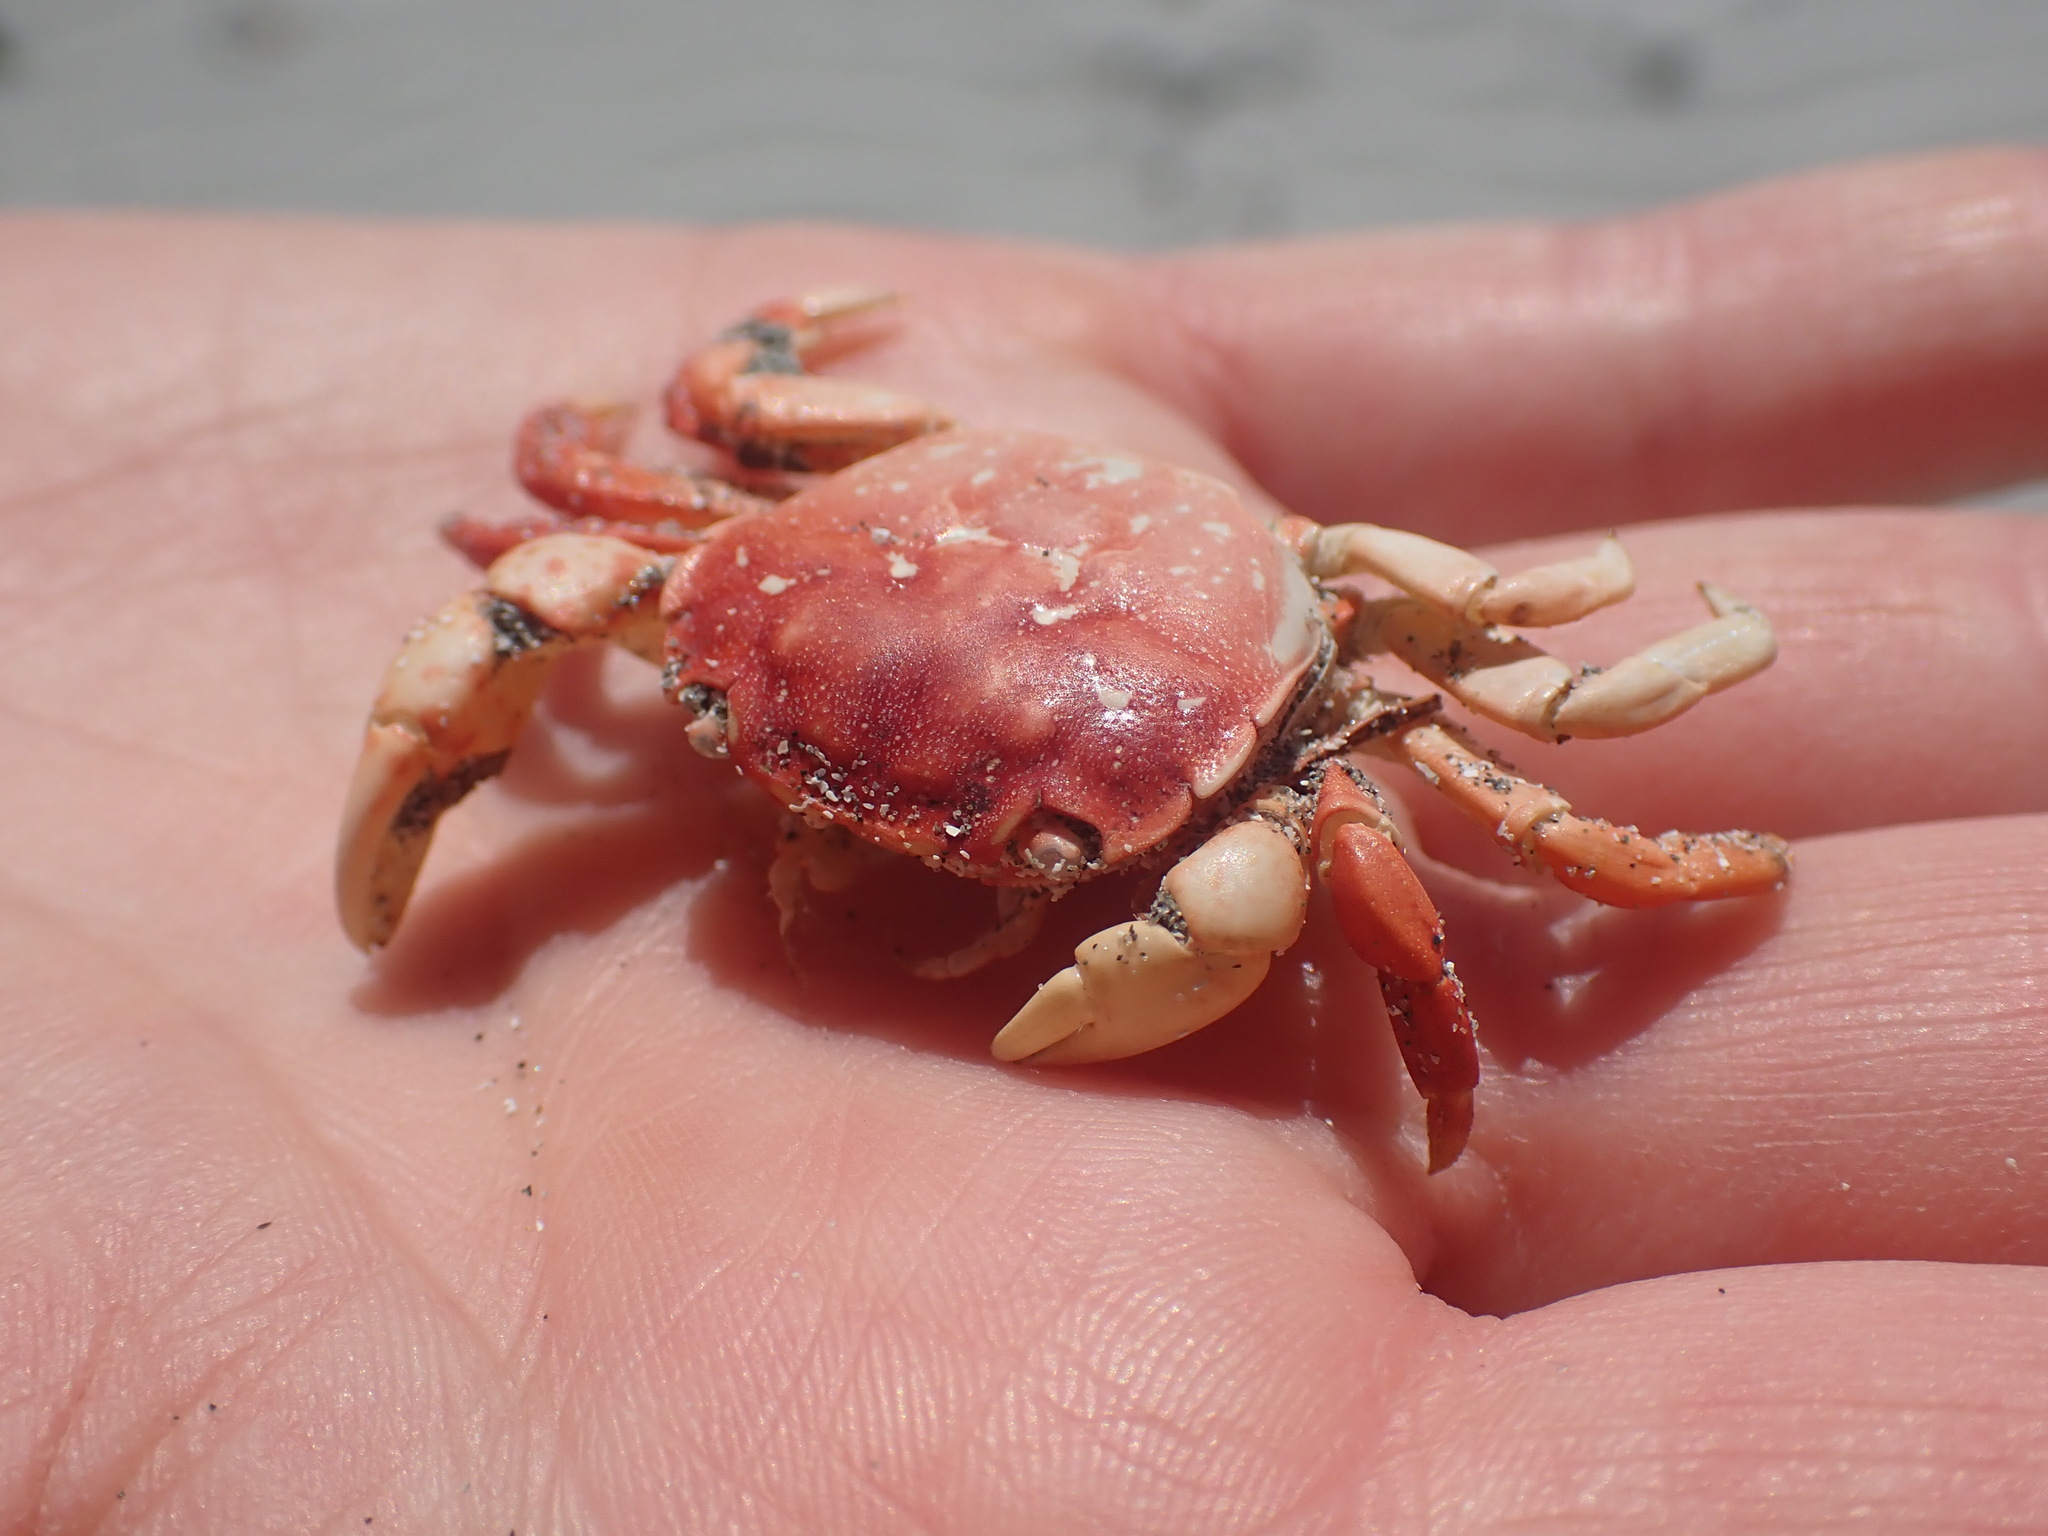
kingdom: Animalia
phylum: Arthropoda
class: Malacostraca
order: Decapoda
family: Varunidae
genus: Hemigrapsus
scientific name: Hemigrapsus nudus
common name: Purple shore crab
